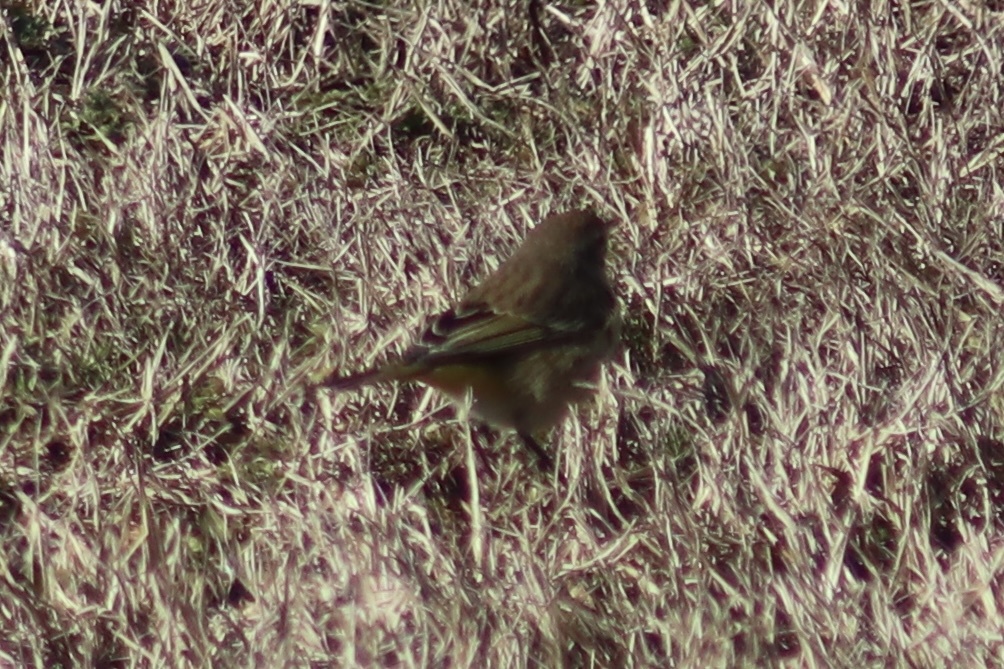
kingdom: Animalia
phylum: Chordata
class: Aves
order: Passeriformes
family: Parulidae
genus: Setophaga
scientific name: Setophaga palmarum
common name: Palm warbler
